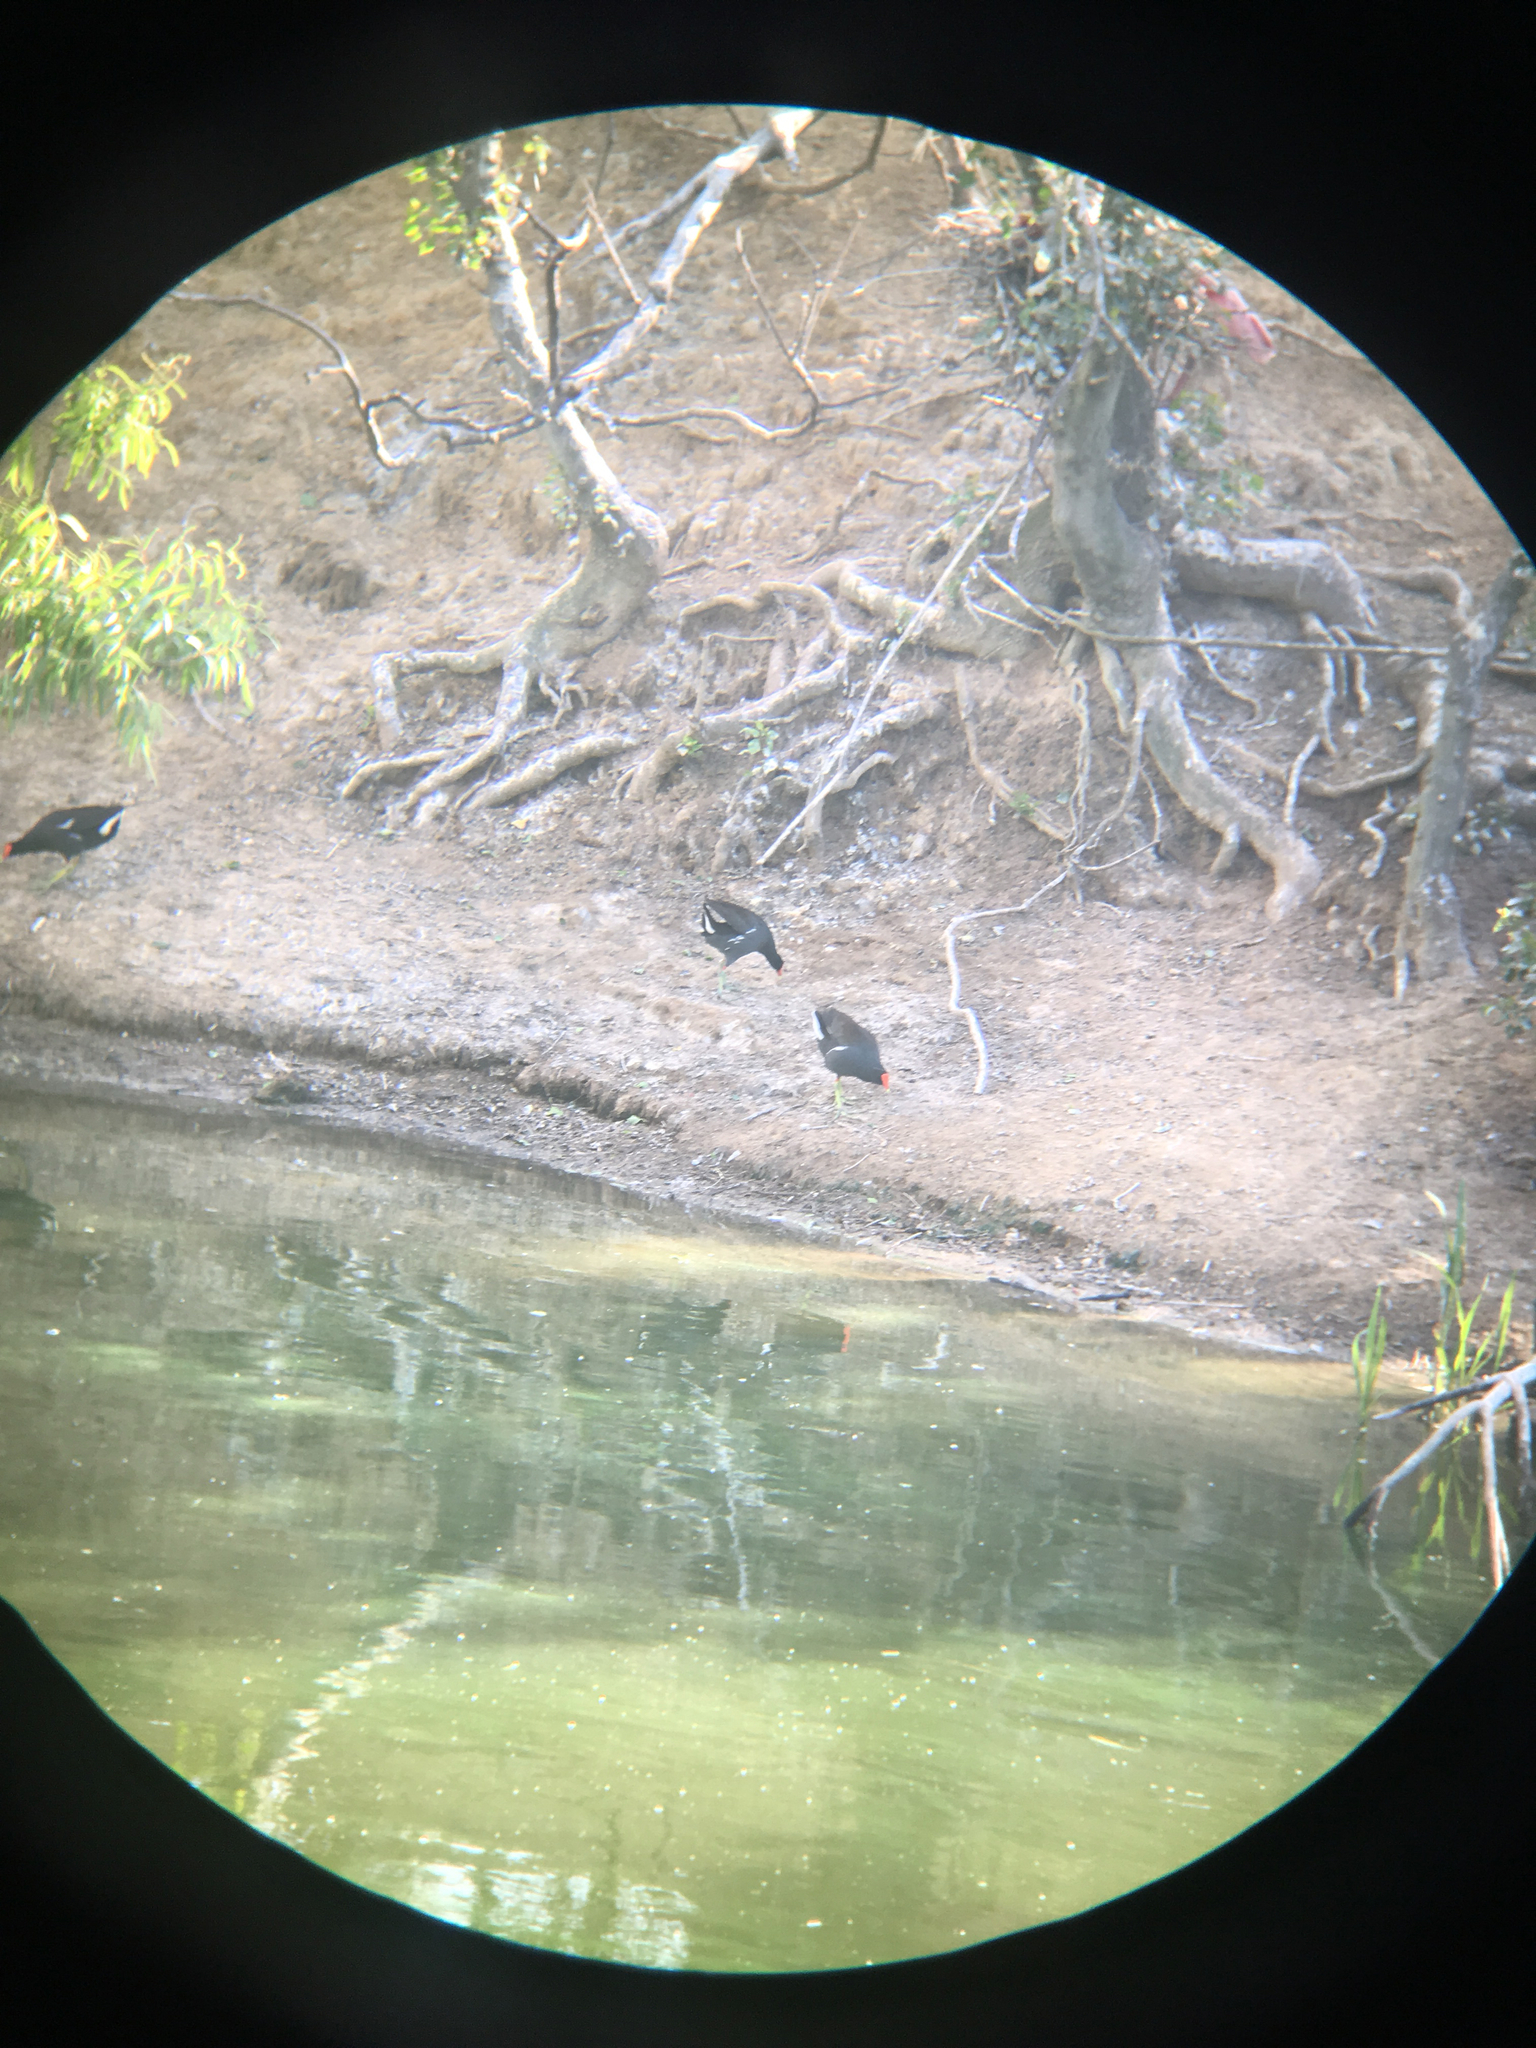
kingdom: Animalia
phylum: Chordata
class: Aves
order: Gruiformes
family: Rallidae
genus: Gallinula
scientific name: Gallinula chloropus
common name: Common moorhen
